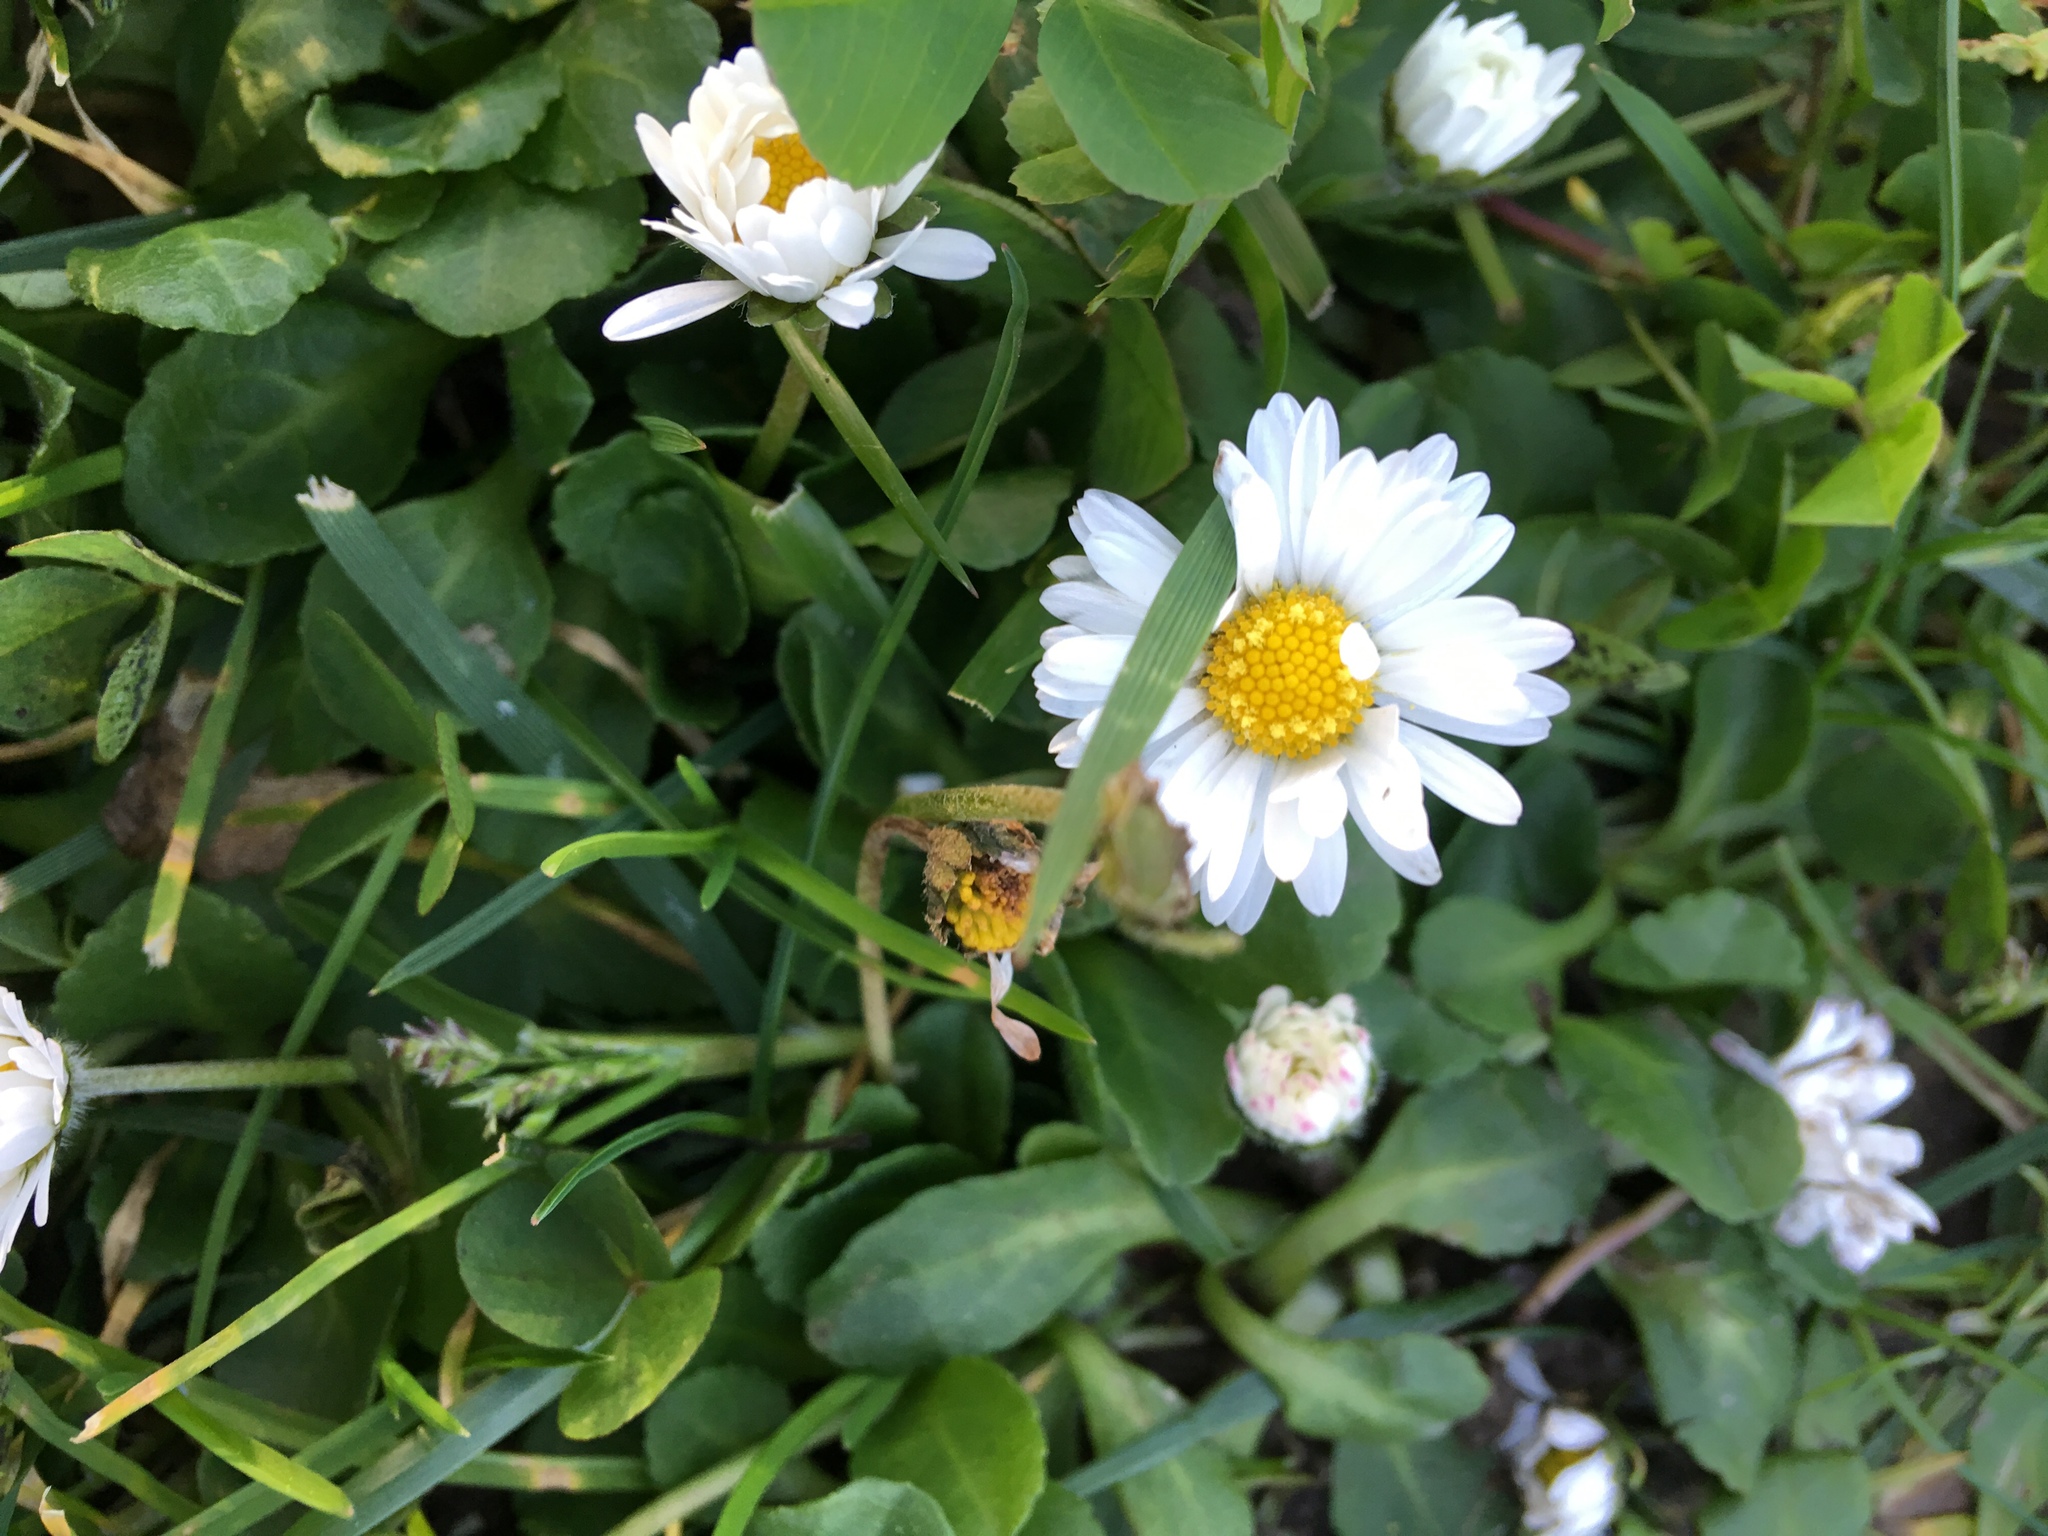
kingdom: Plantae
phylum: Tracheophyta
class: Magnoliopsida
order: Asterales
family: Asteraceae
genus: Bellis
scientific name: Bellis perennis
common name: Lawndaisy
